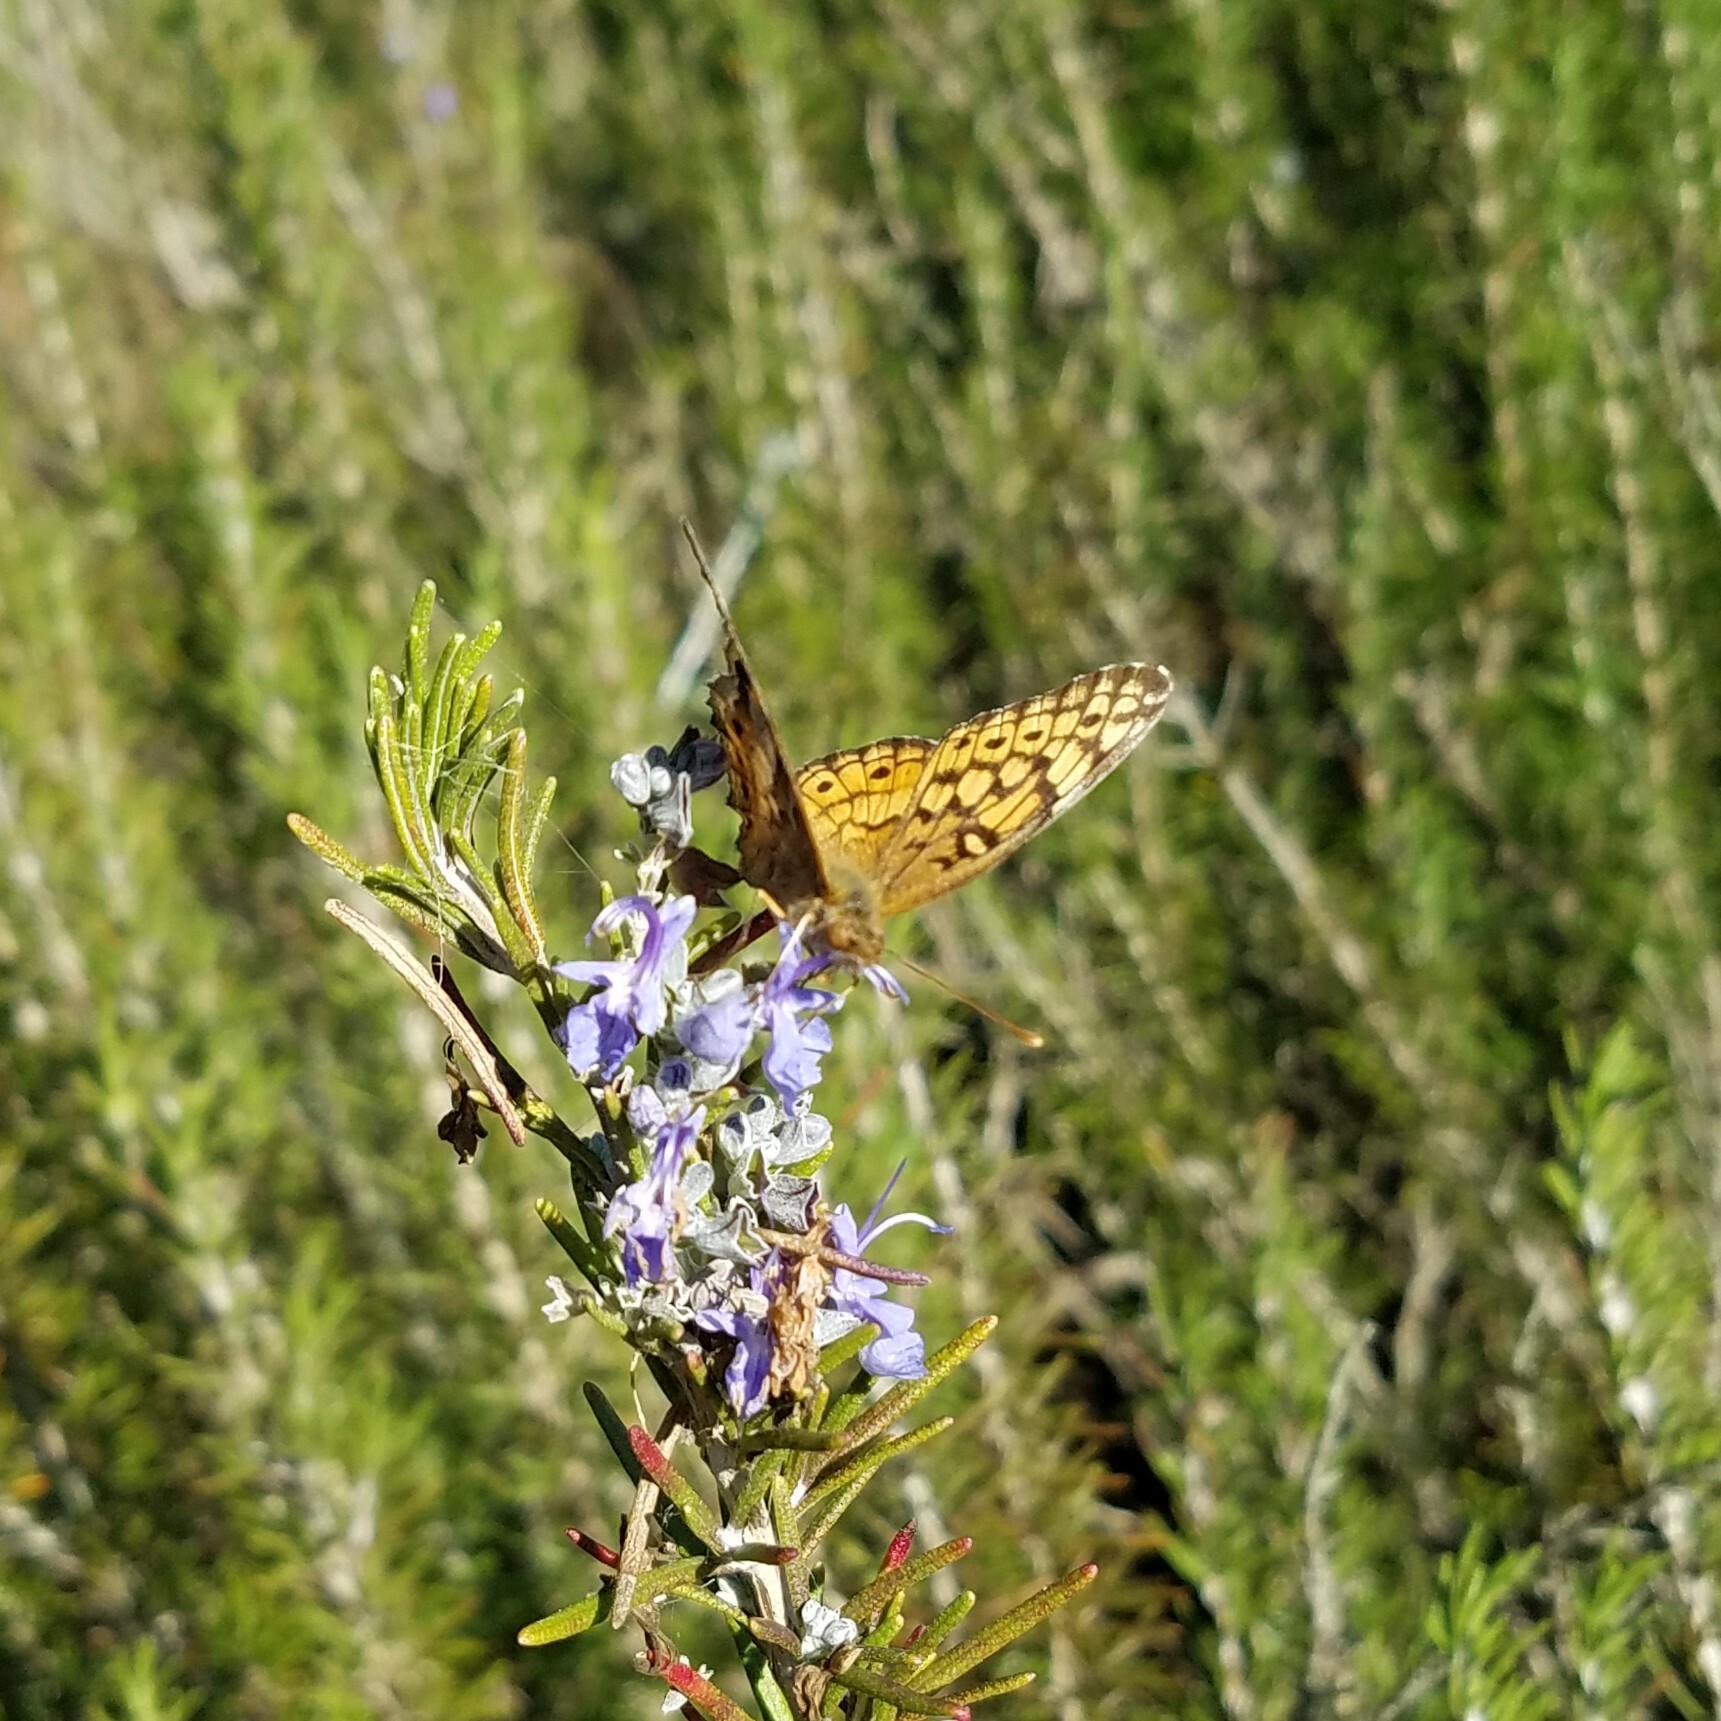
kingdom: Animalia
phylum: Arthropoda
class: Insecta
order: Lepidoptera
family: Nymphalidae
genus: Euptoieta
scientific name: Euptoieta claudia
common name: Variegated fritillary
